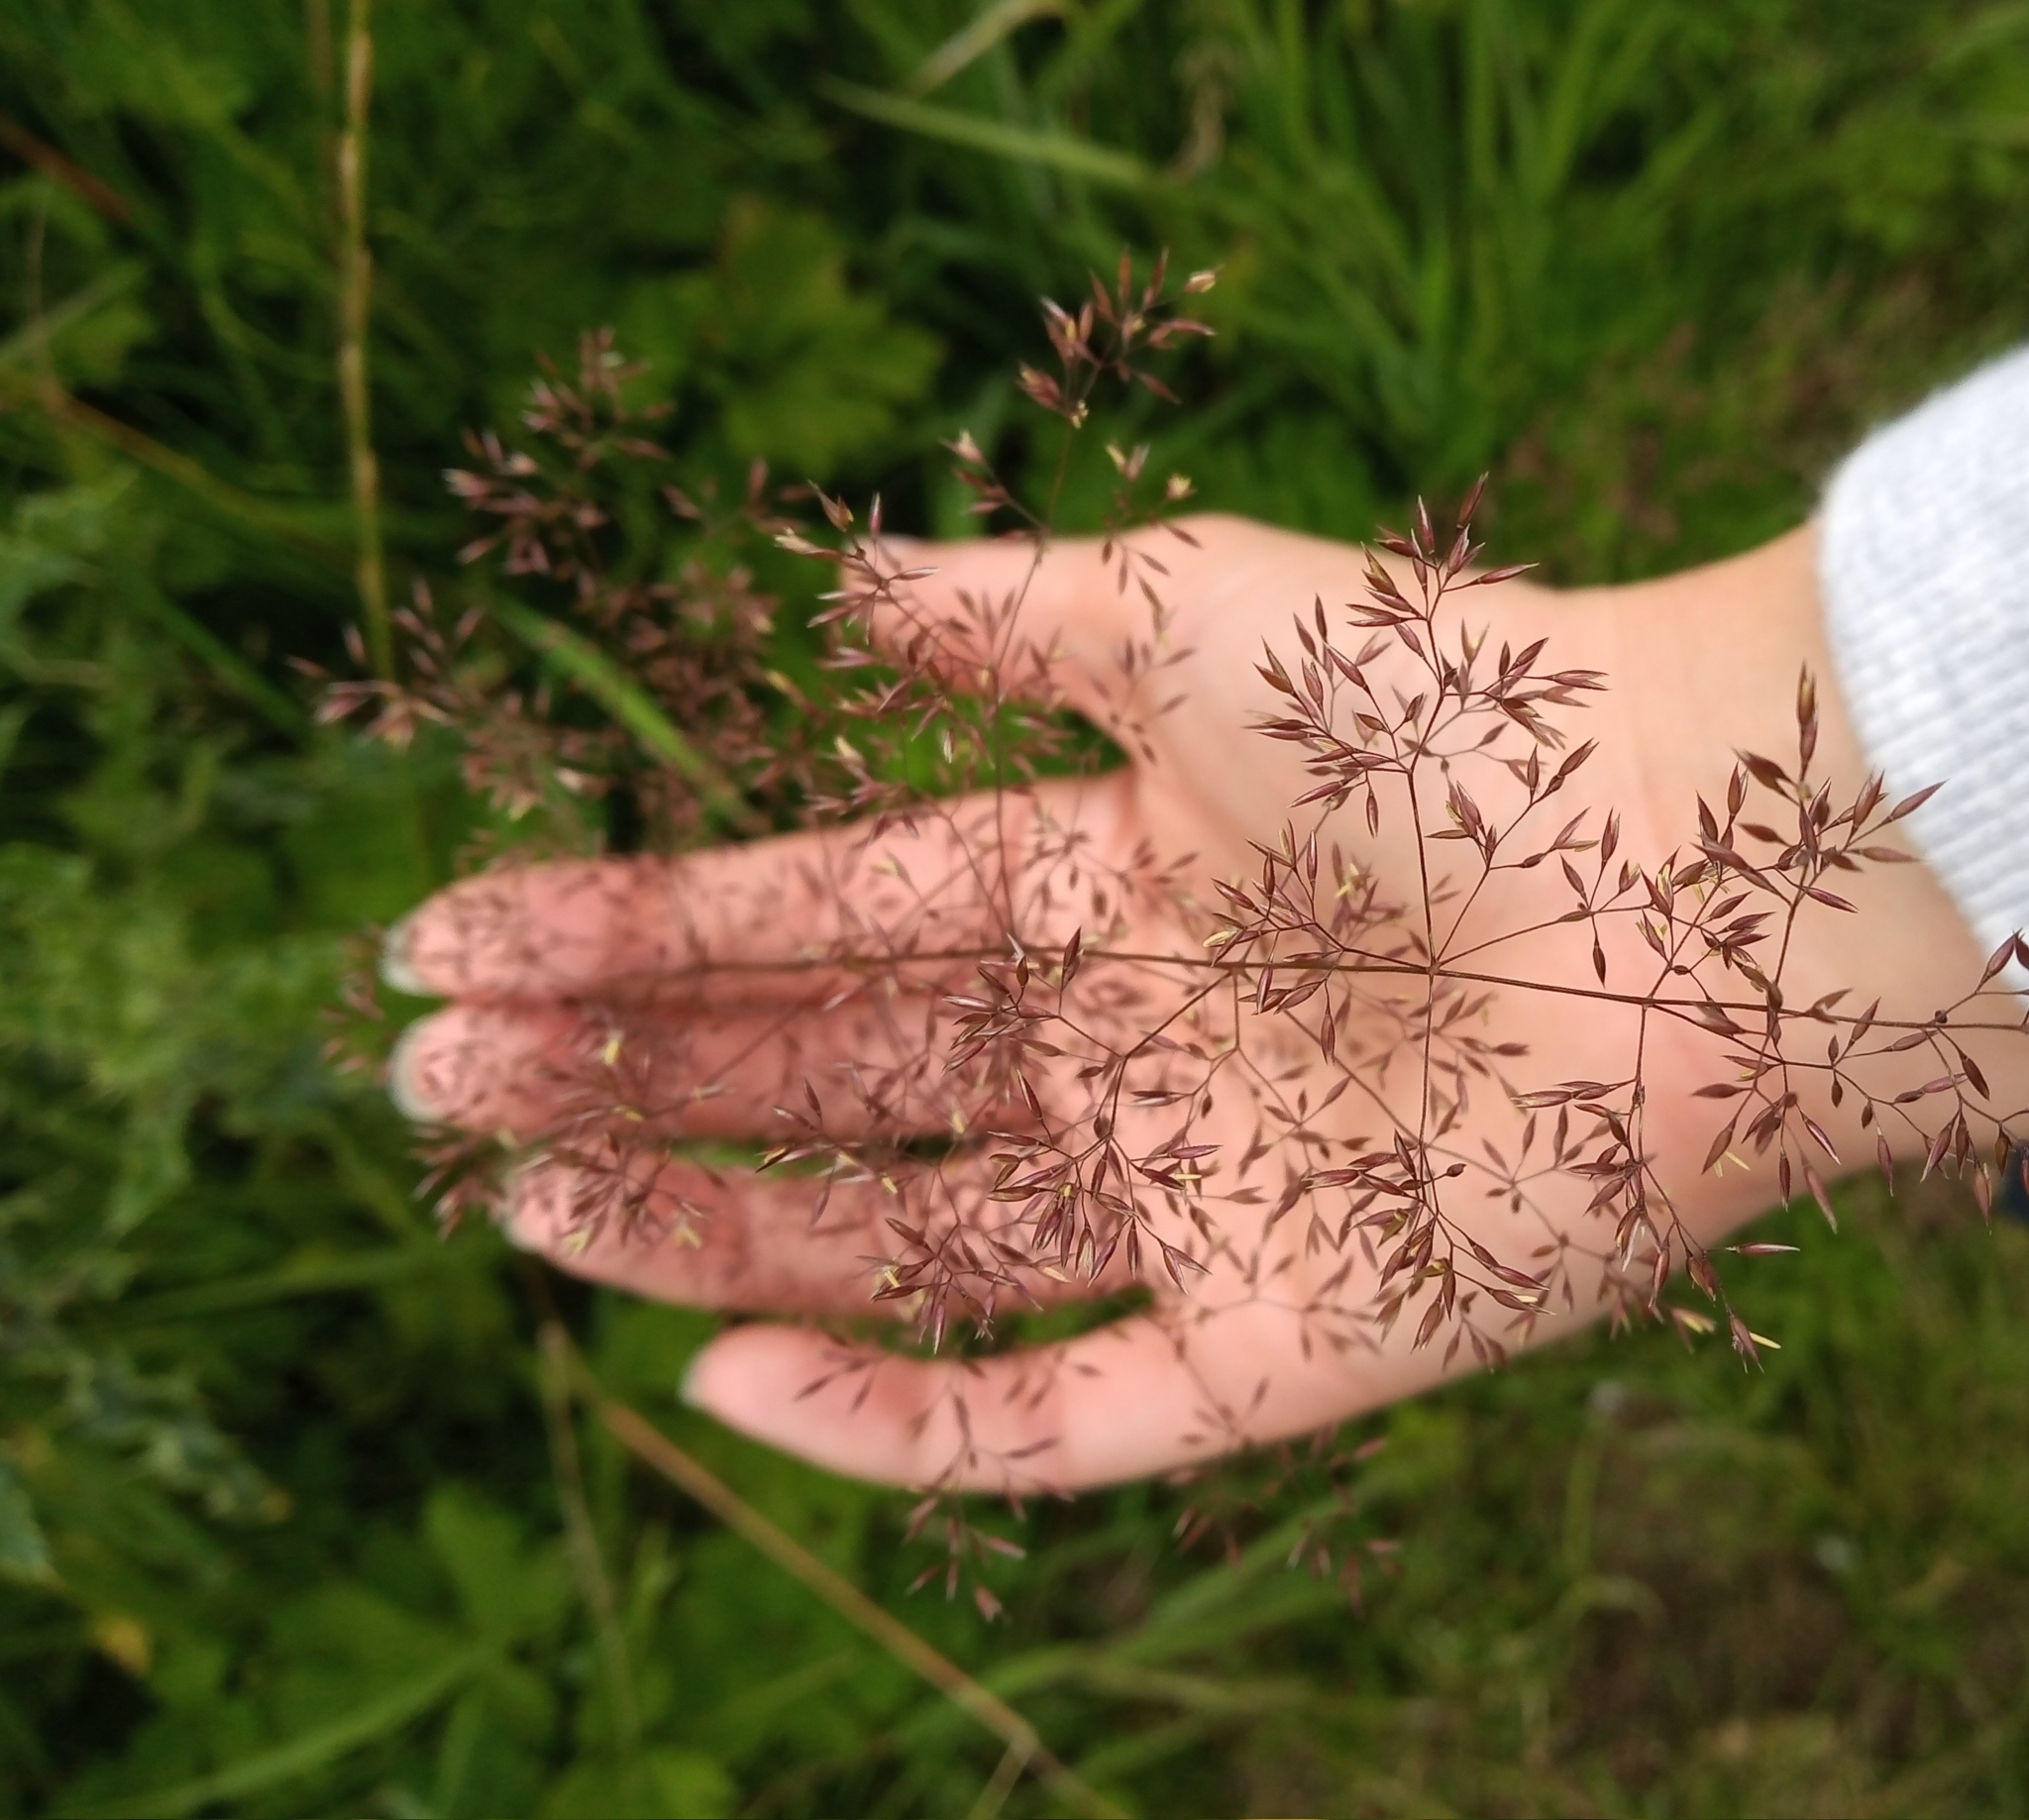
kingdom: Plantae
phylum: Tracheophyta
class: Liliopsida
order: Poales
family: Poaceae
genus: Agrostis
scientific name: Agrostis capillaris
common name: Colonial bentgrass
